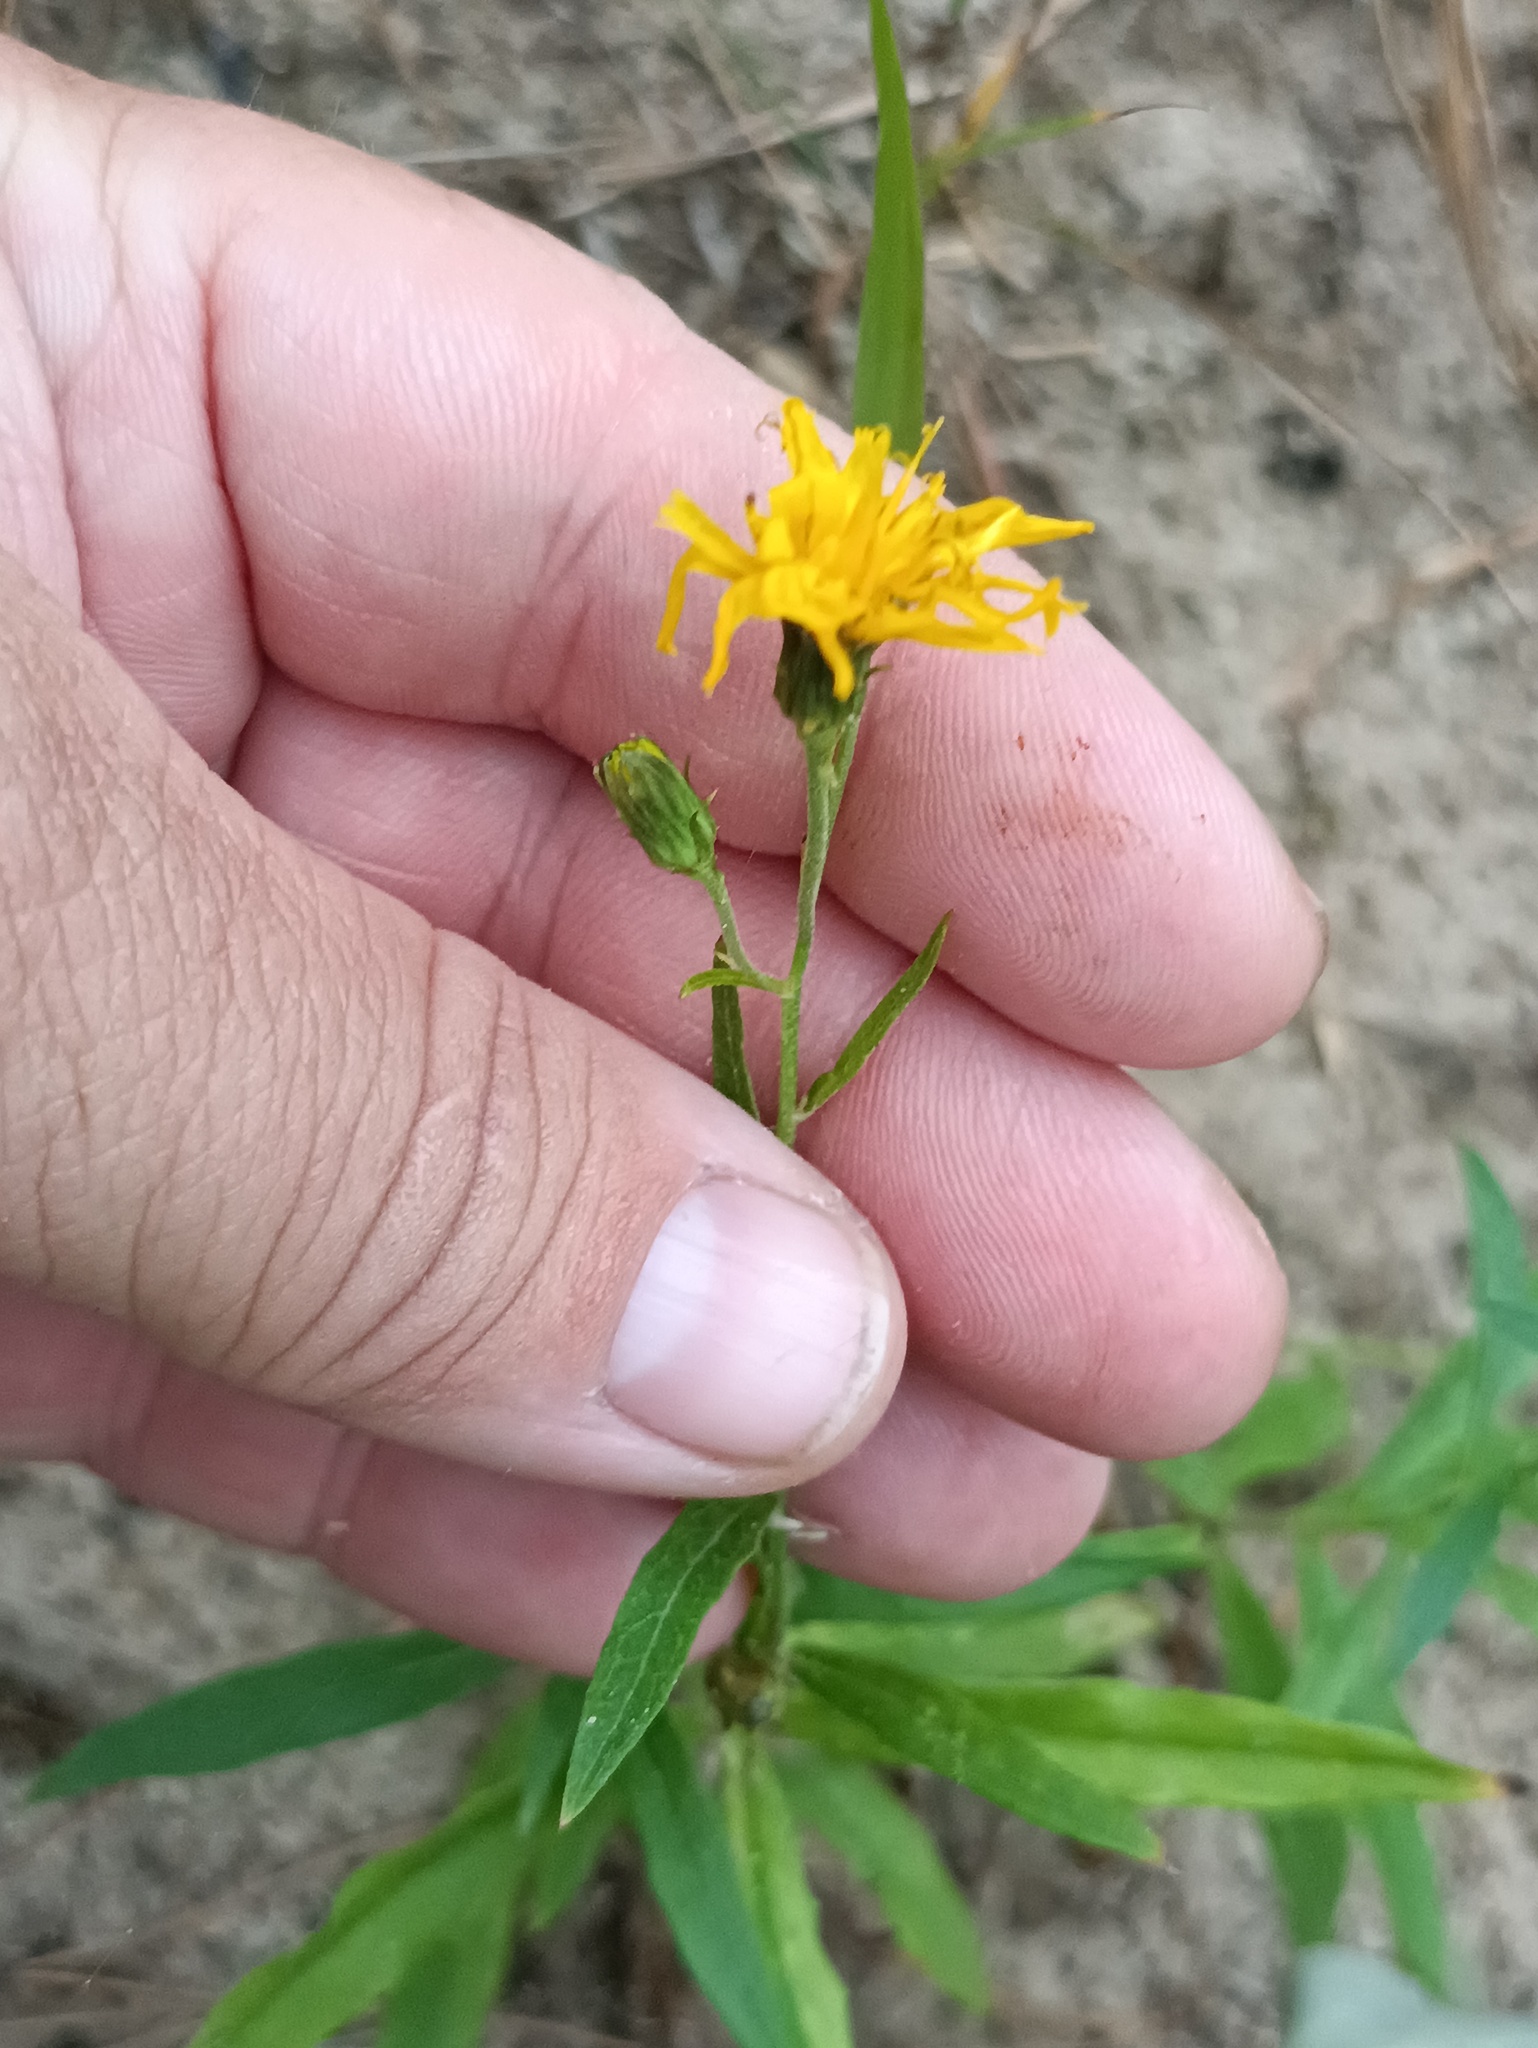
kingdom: Plantae
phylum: Tracheophyta
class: Magnoliopsida
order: Asterales
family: Asteraceae
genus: Hieracium
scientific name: Hieracium umbellatum
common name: Northern hawkweed
